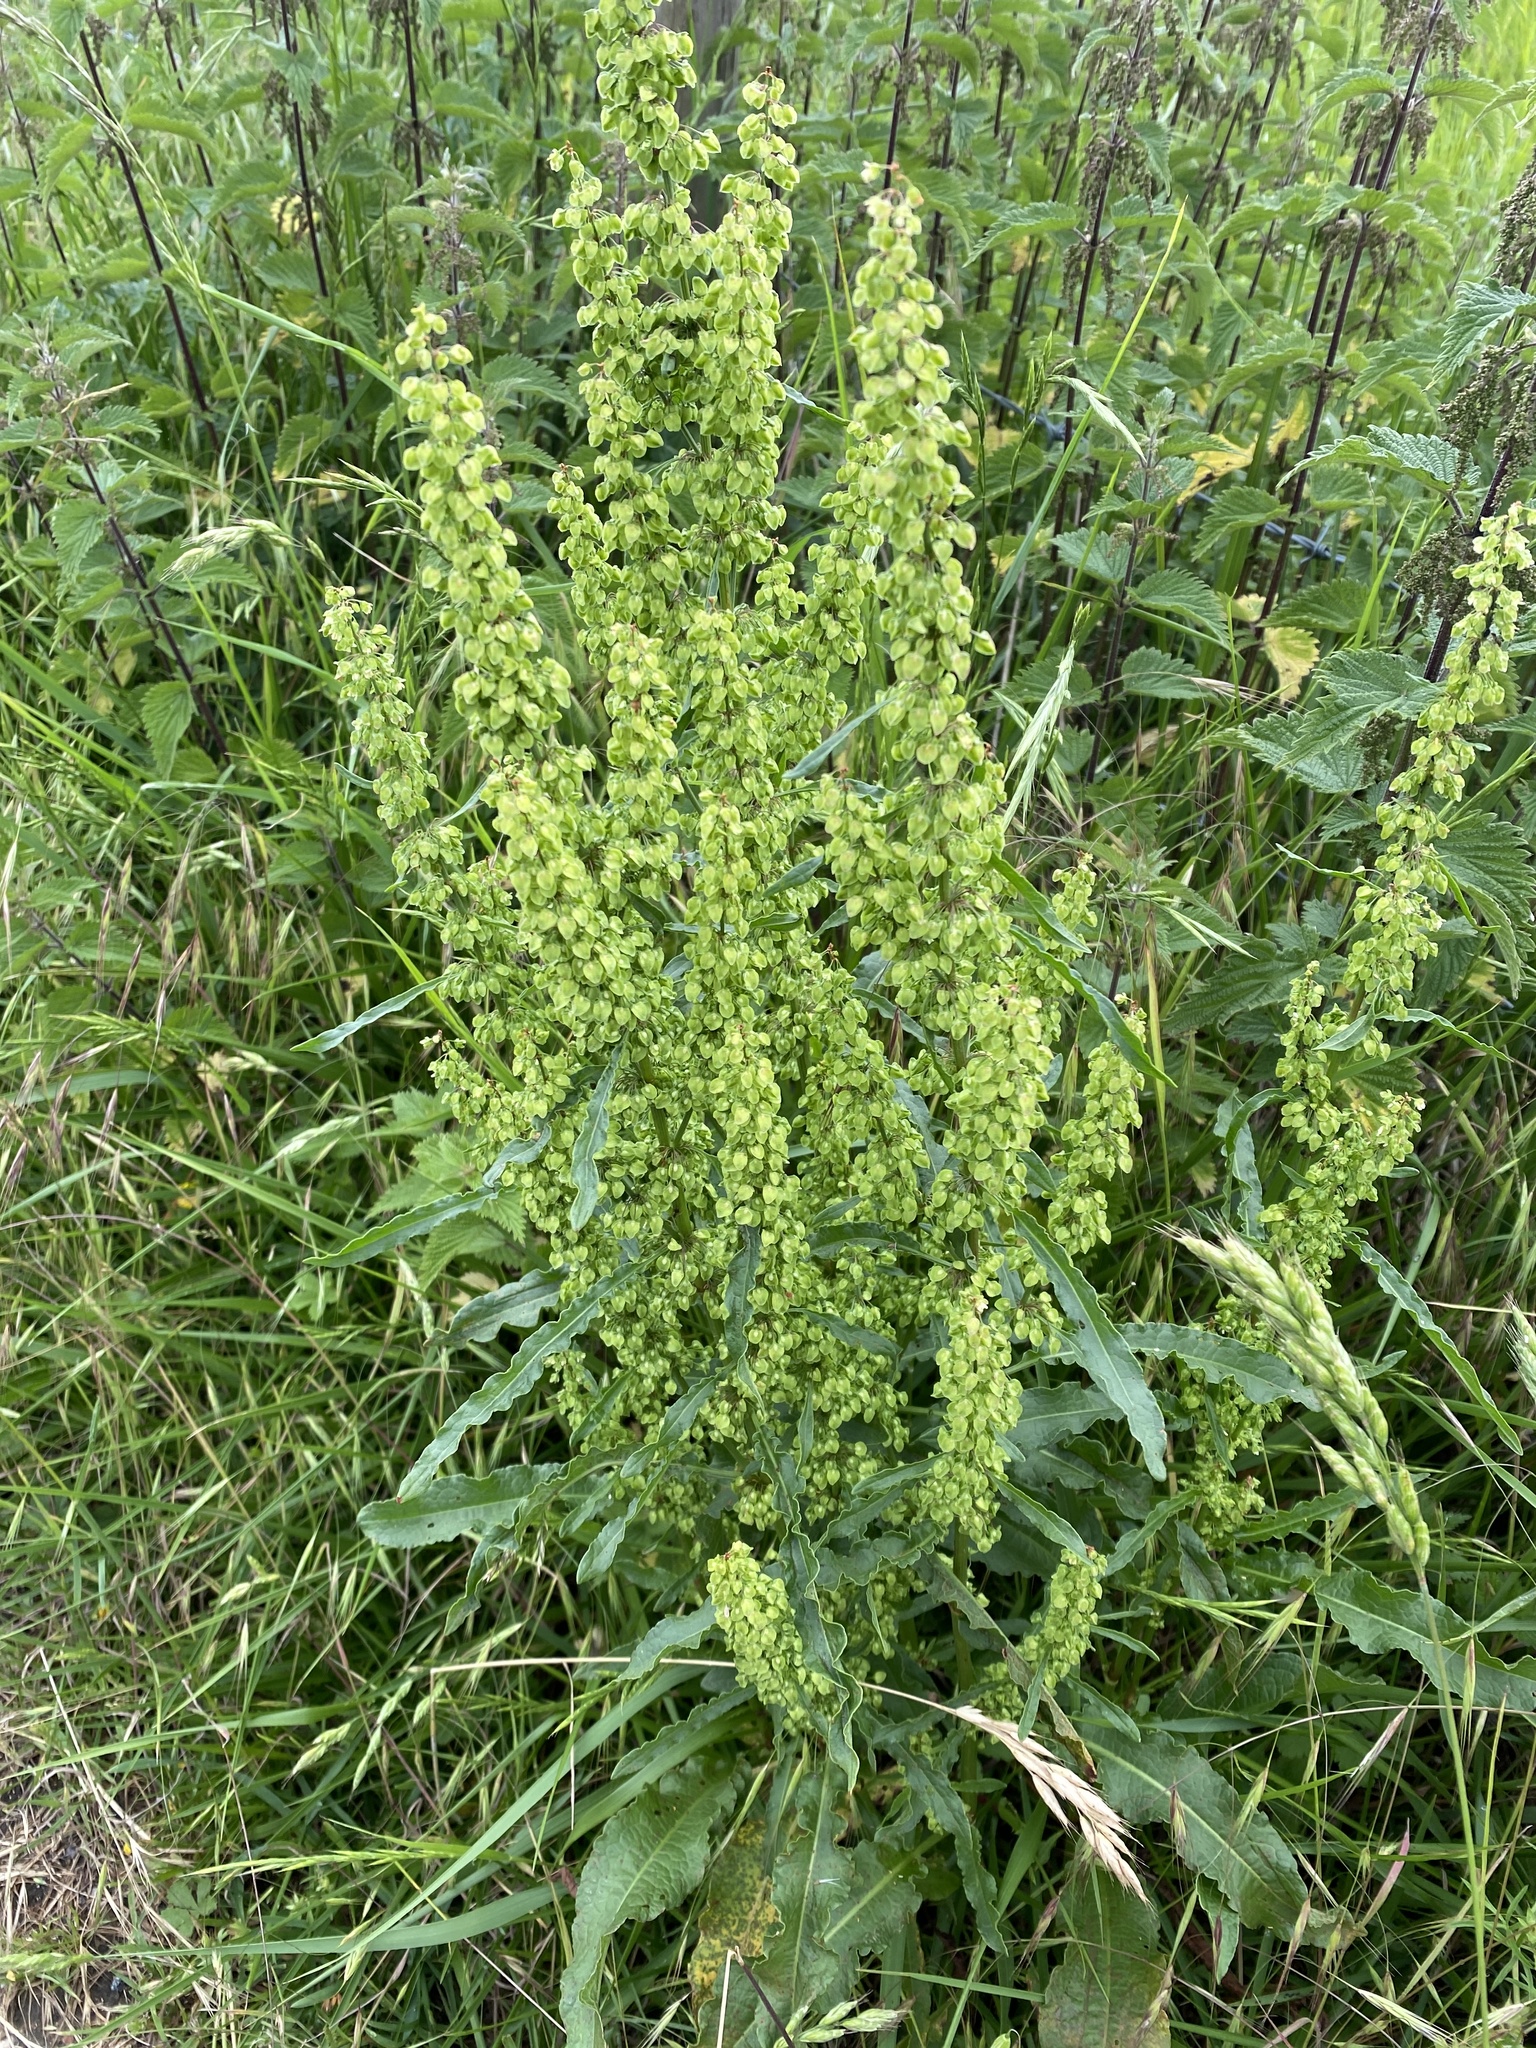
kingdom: Plantae
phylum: Tracheophyta
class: Magnoliopsida
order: Caryophyllales
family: Polygonaceae
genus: Rumex
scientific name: Rumex crispus
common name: Curled dock
